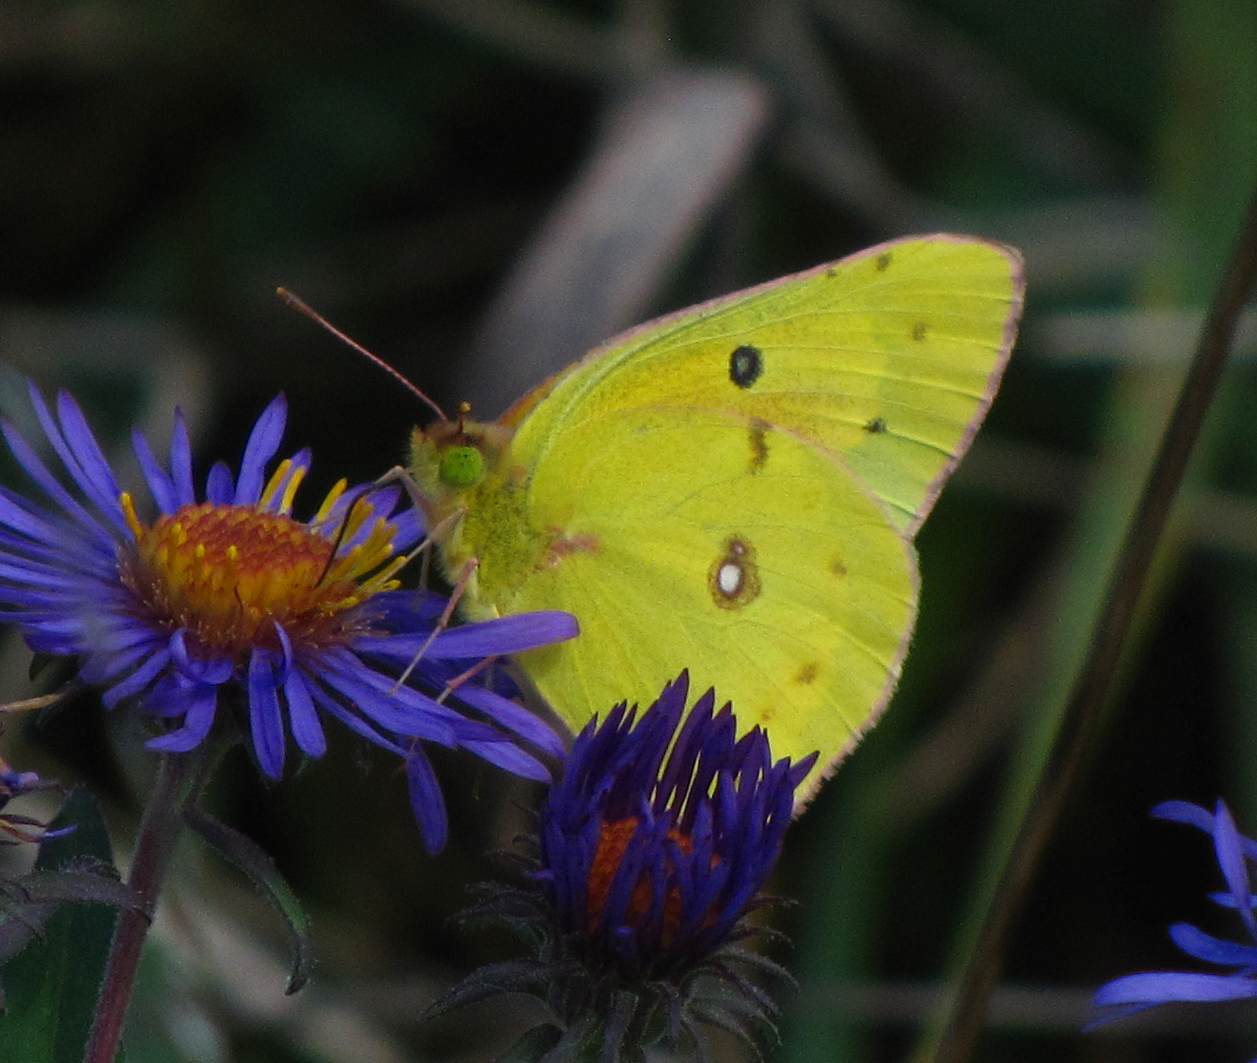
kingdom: Animalia
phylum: Arthropoda
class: Insecta
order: Lepidoptera
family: Pieridae
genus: Colias
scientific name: Colias philodice
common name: Clouded sulphur
